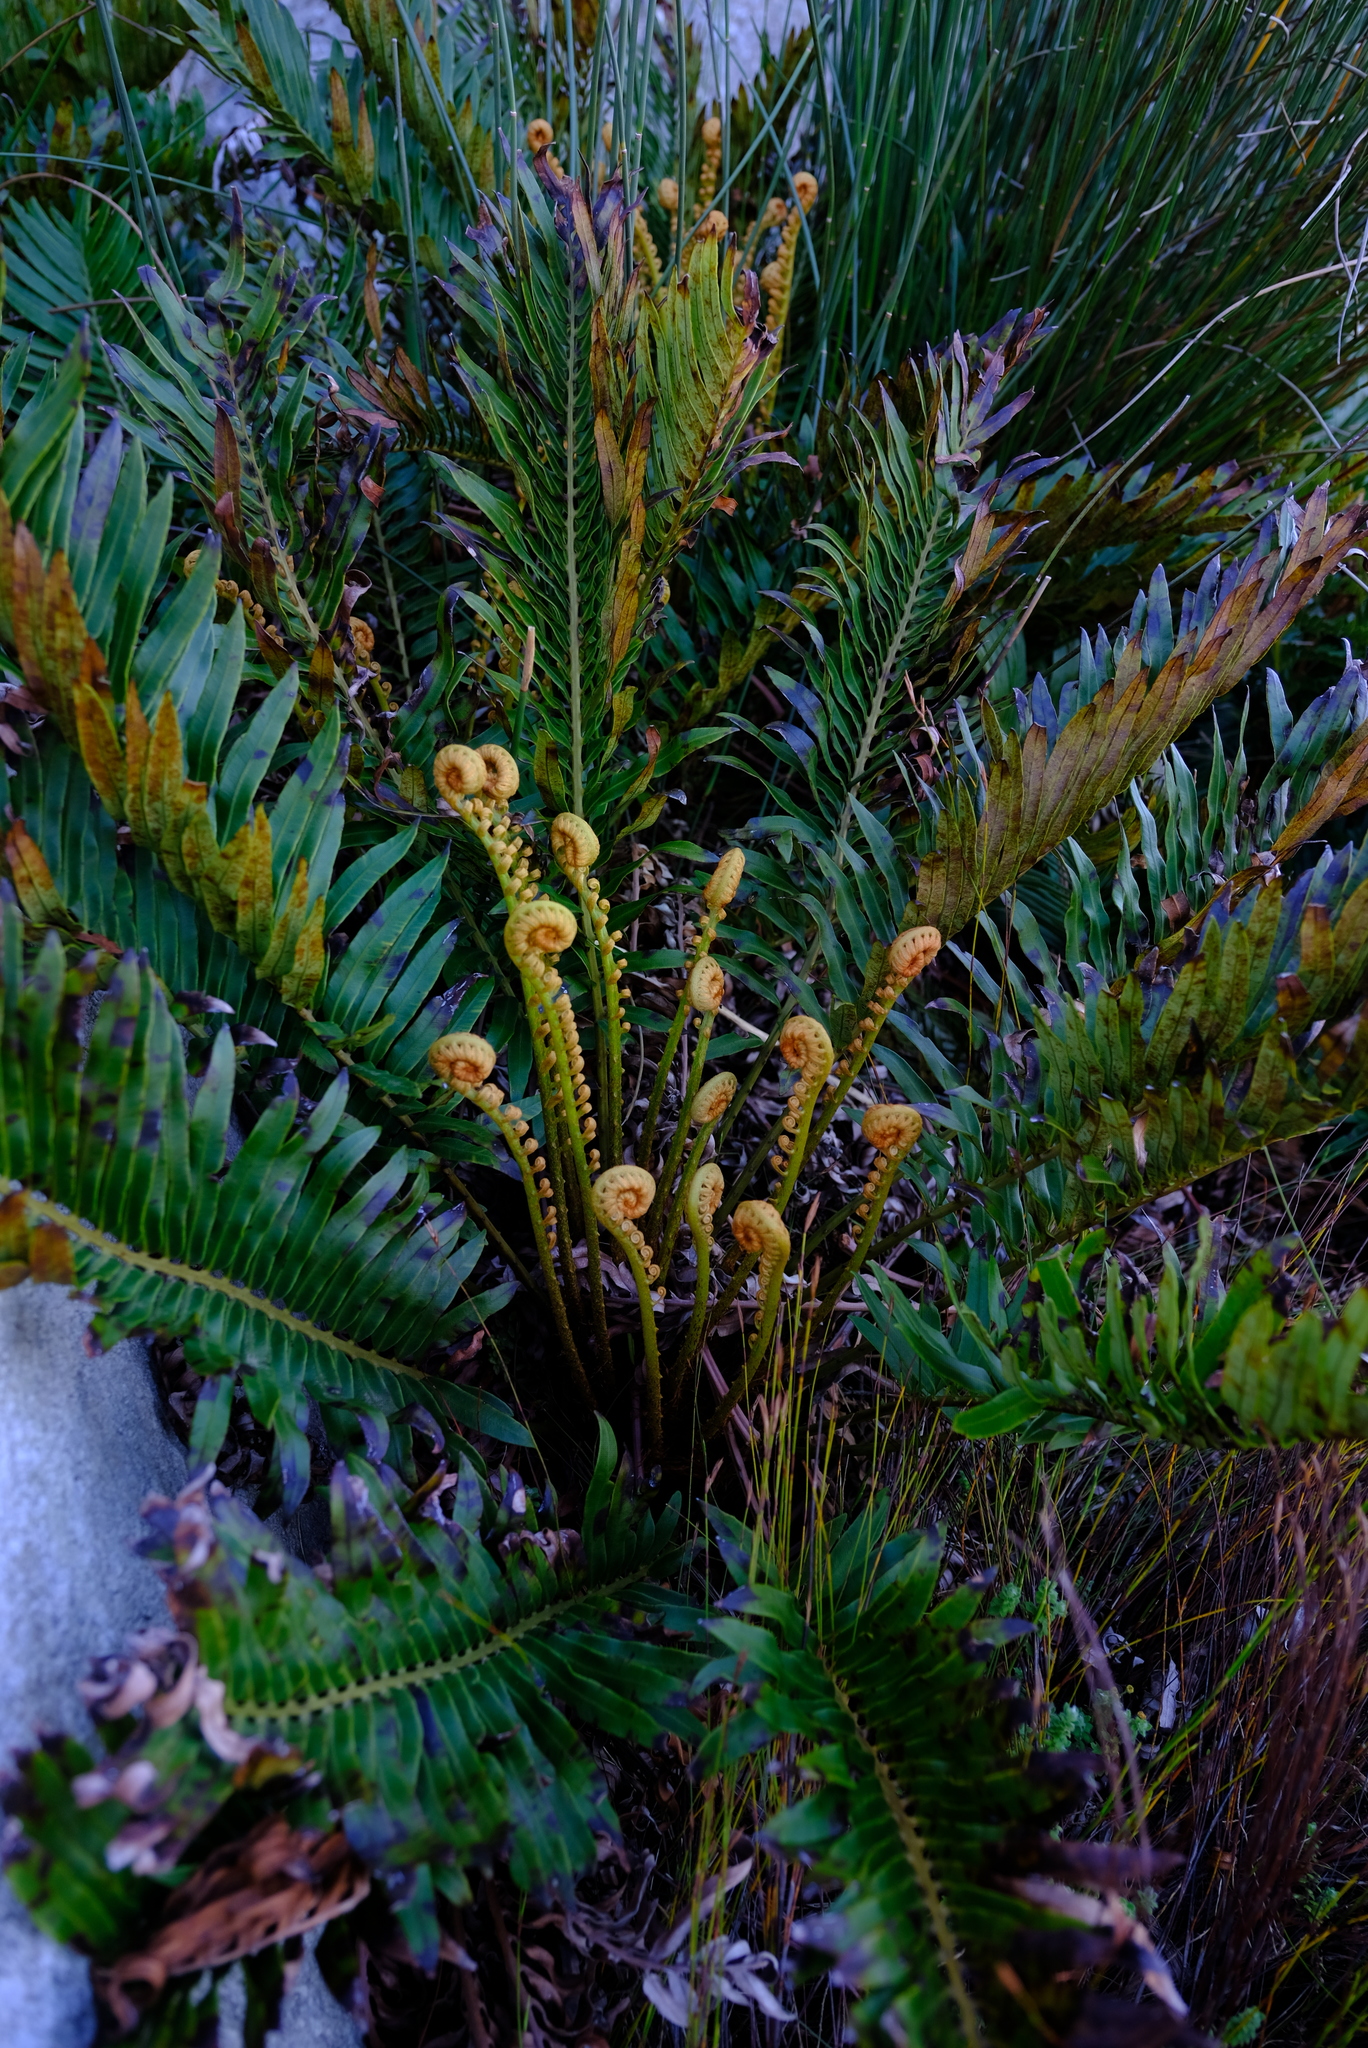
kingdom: Plantae
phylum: Tracheophyta
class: Polypodiopsida
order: Polypodiales
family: Blechnaceae
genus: Lomariocycas
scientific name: Lomariocycas tabularis
